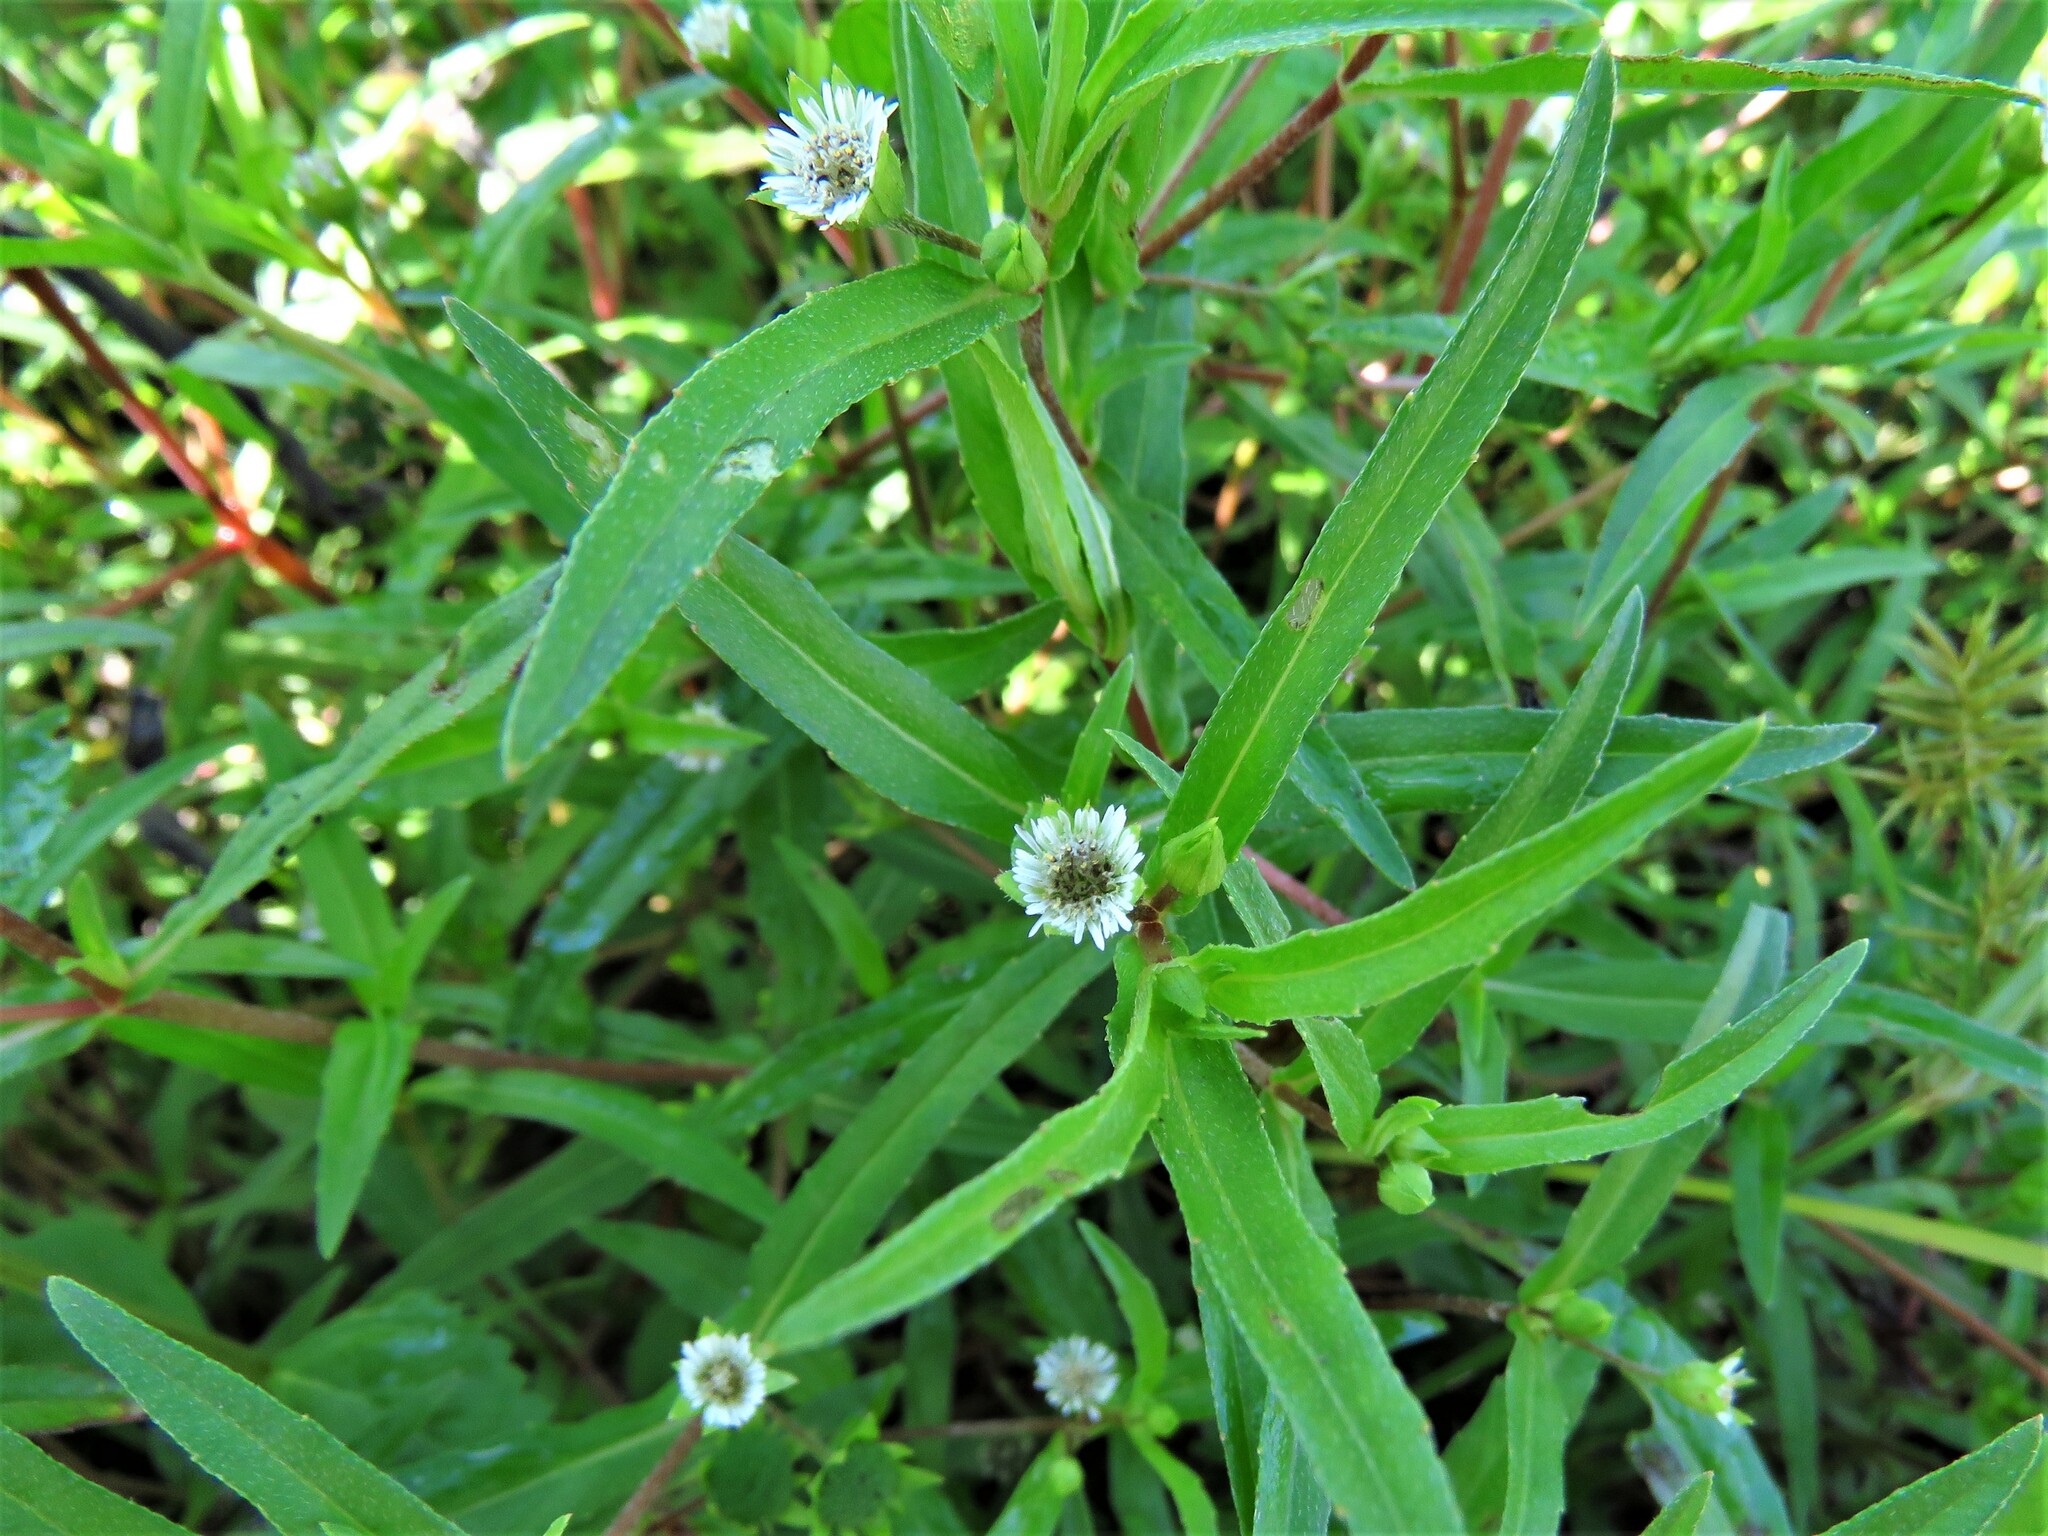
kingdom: Plantae
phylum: Tracheophyta
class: Magnoliopsida
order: Asterales
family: Asteraceae
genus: Eclipta
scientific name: Eclipta prostrata
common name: False daisy
